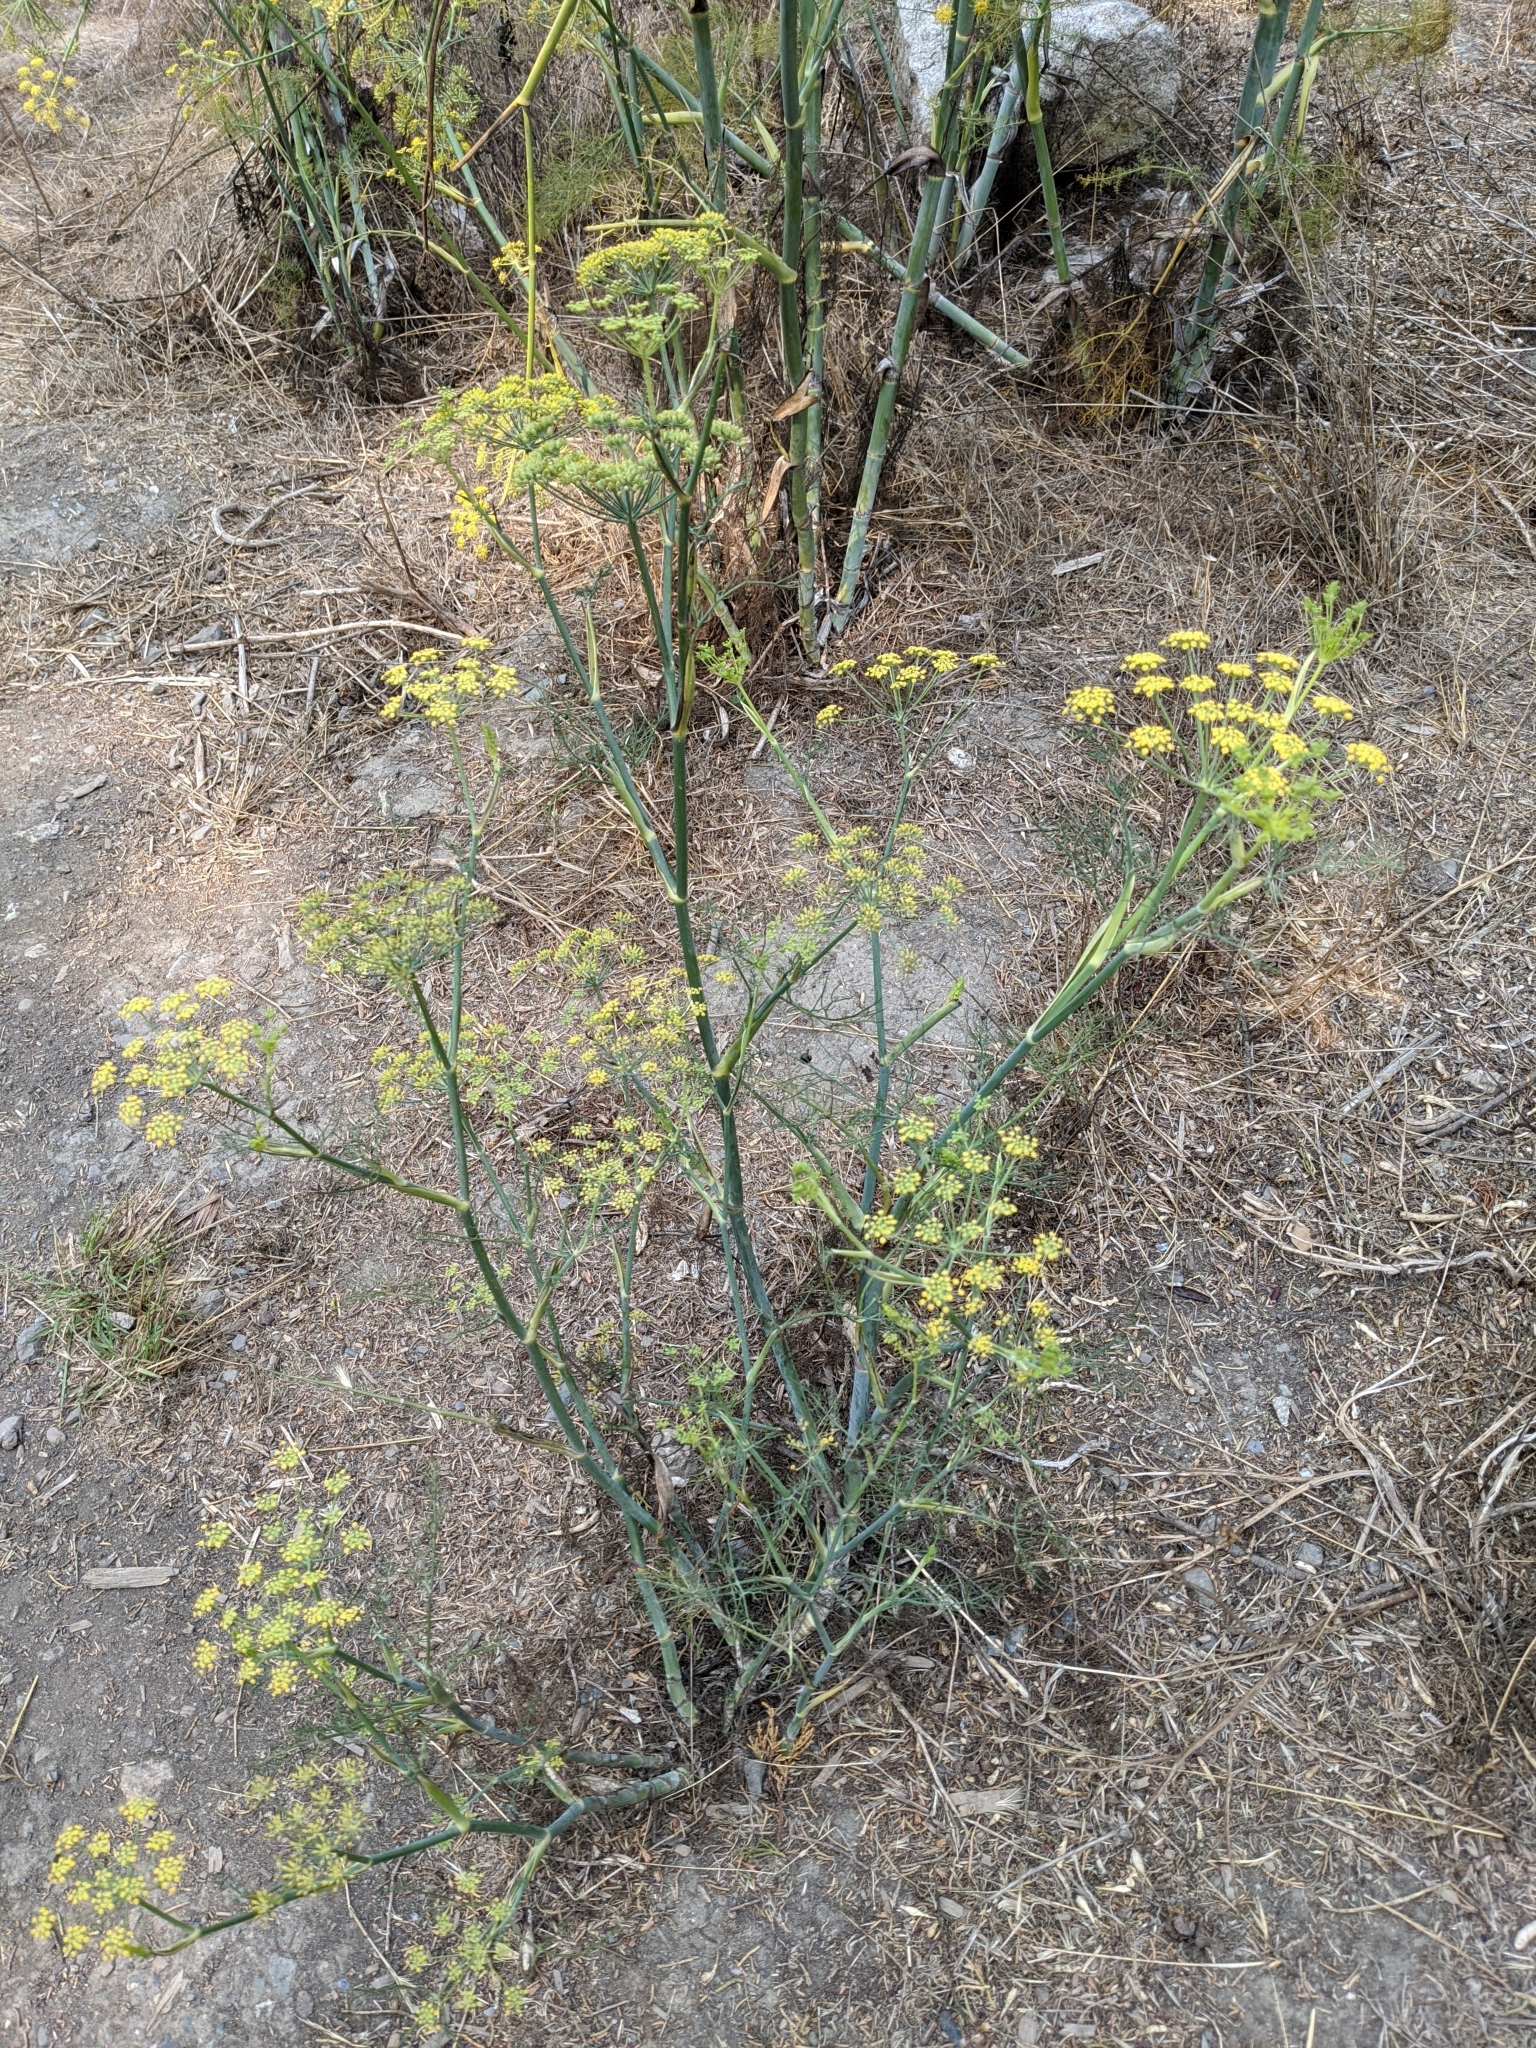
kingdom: Plantae
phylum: Tracheophyta
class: Magnoliopsida
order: Apiales
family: Apiaceae
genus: Foeniculum
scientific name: Foeniculum vulgare
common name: Fennel
